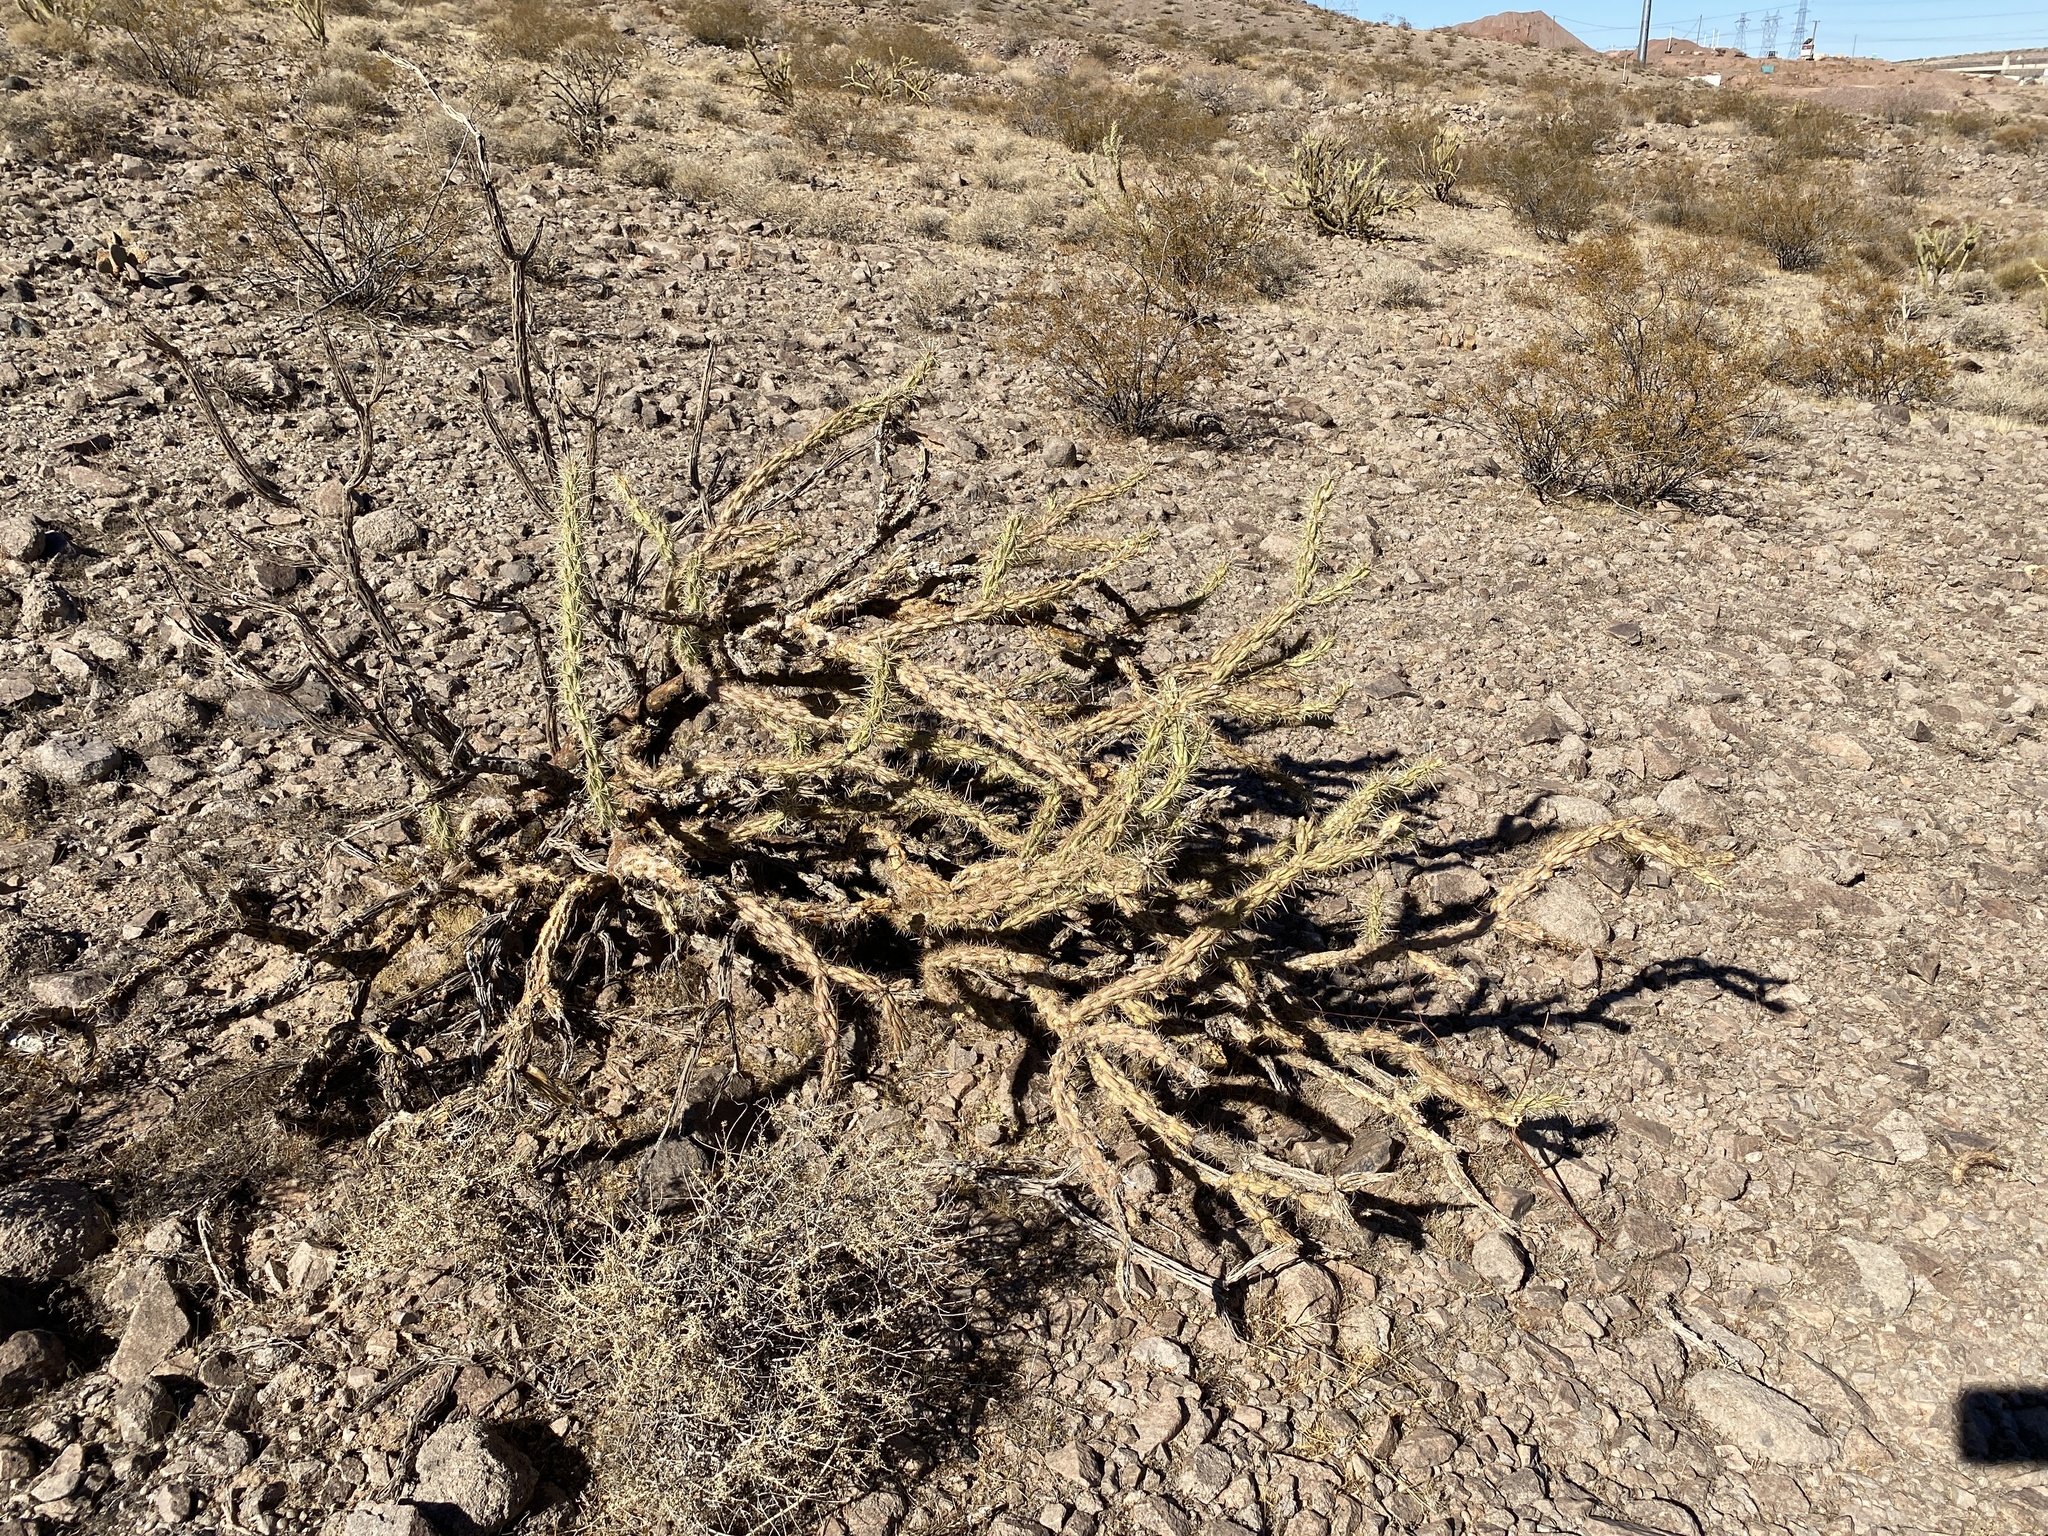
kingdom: Plantae
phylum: Tracheophyta
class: Magnoliopsida
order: Caryophyllales
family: Cactaceae
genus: Cylindropuntia
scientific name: Cylindropuntia acanthocarpa
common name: Buckhorn cholla
